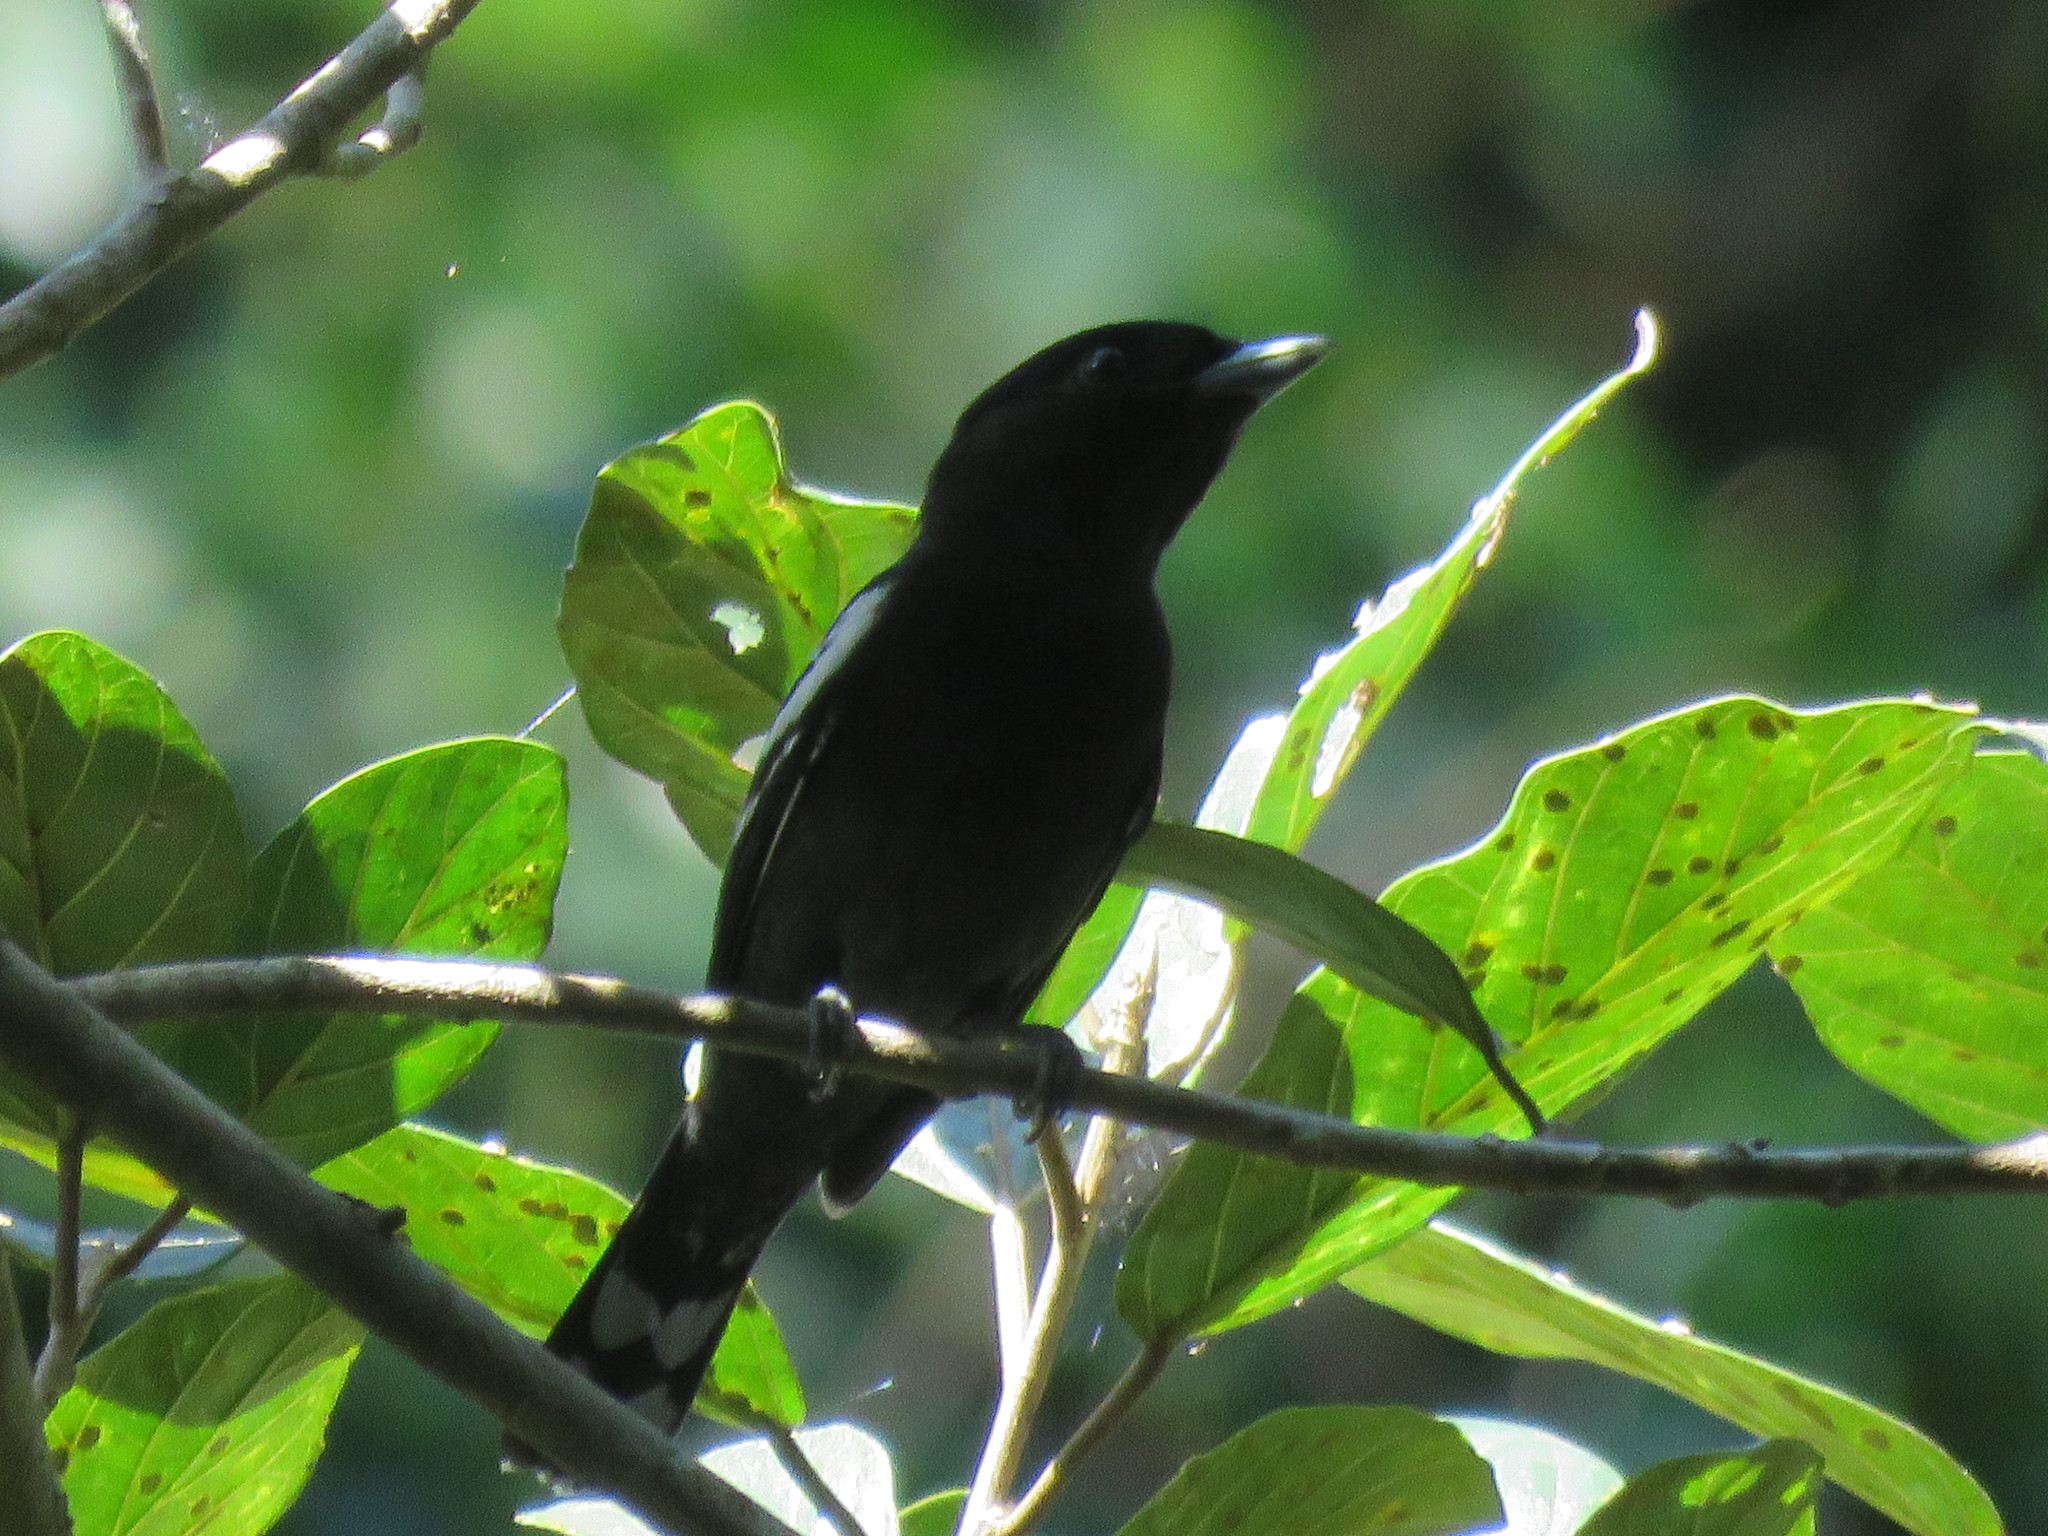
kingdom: Animalia
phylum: Chordata
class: Aves
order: Passeriformes
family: Cotingidae
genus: Pachyramphus
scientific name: Pachyramphus polychopterus
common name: White-winged becard
